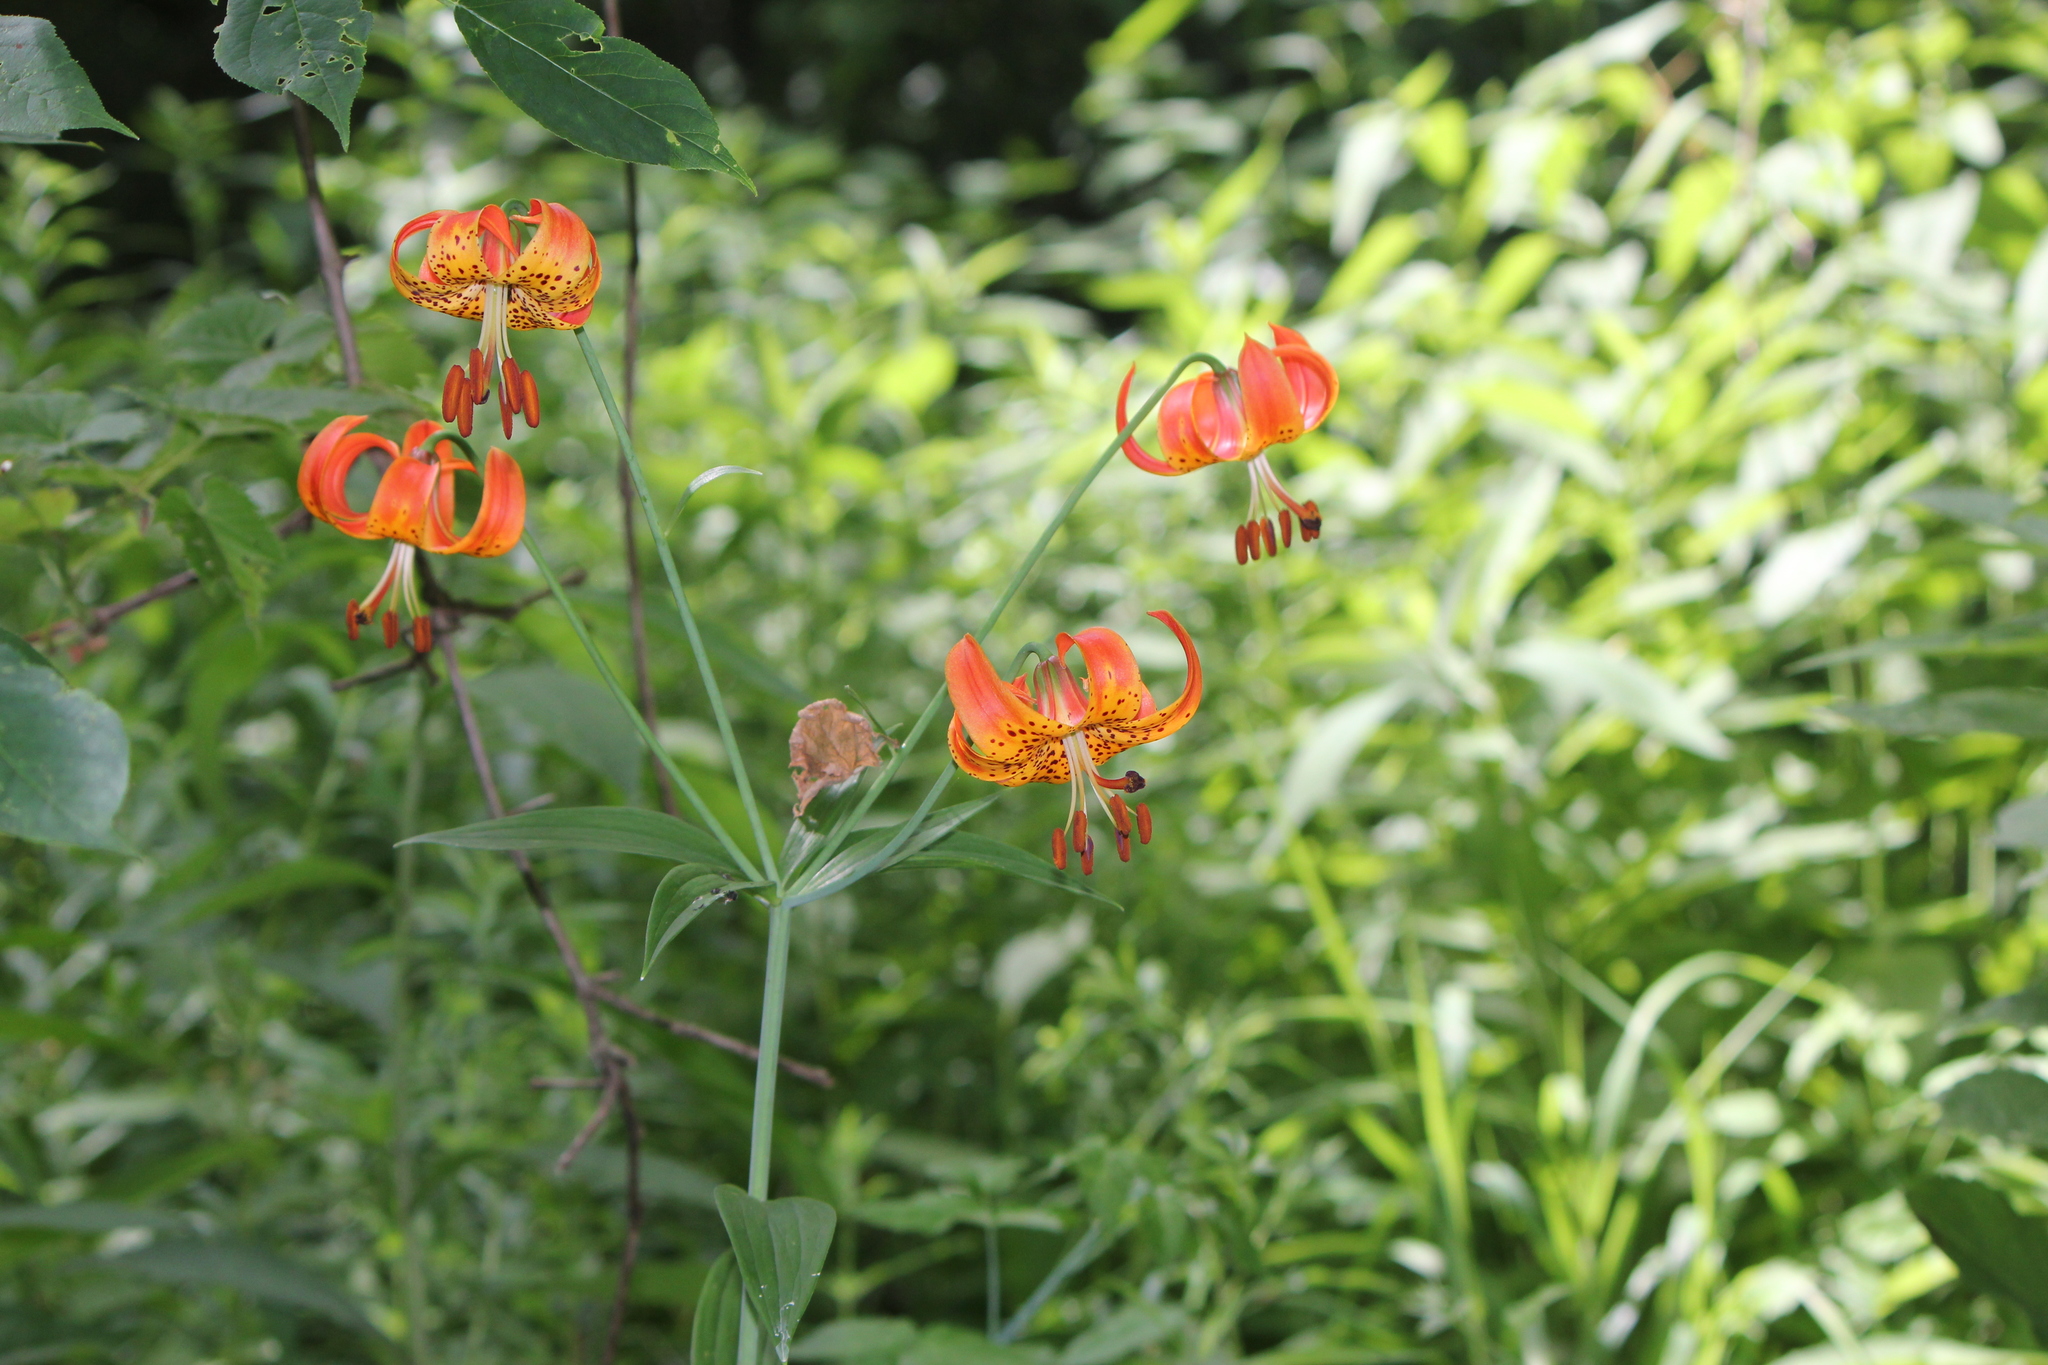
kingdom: Plantae
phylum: Tracheophyta
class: Liliopsida
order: Liliales
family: Liliaceae
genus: Lilium
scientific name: Lilium michiganense
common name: Michigan lily
